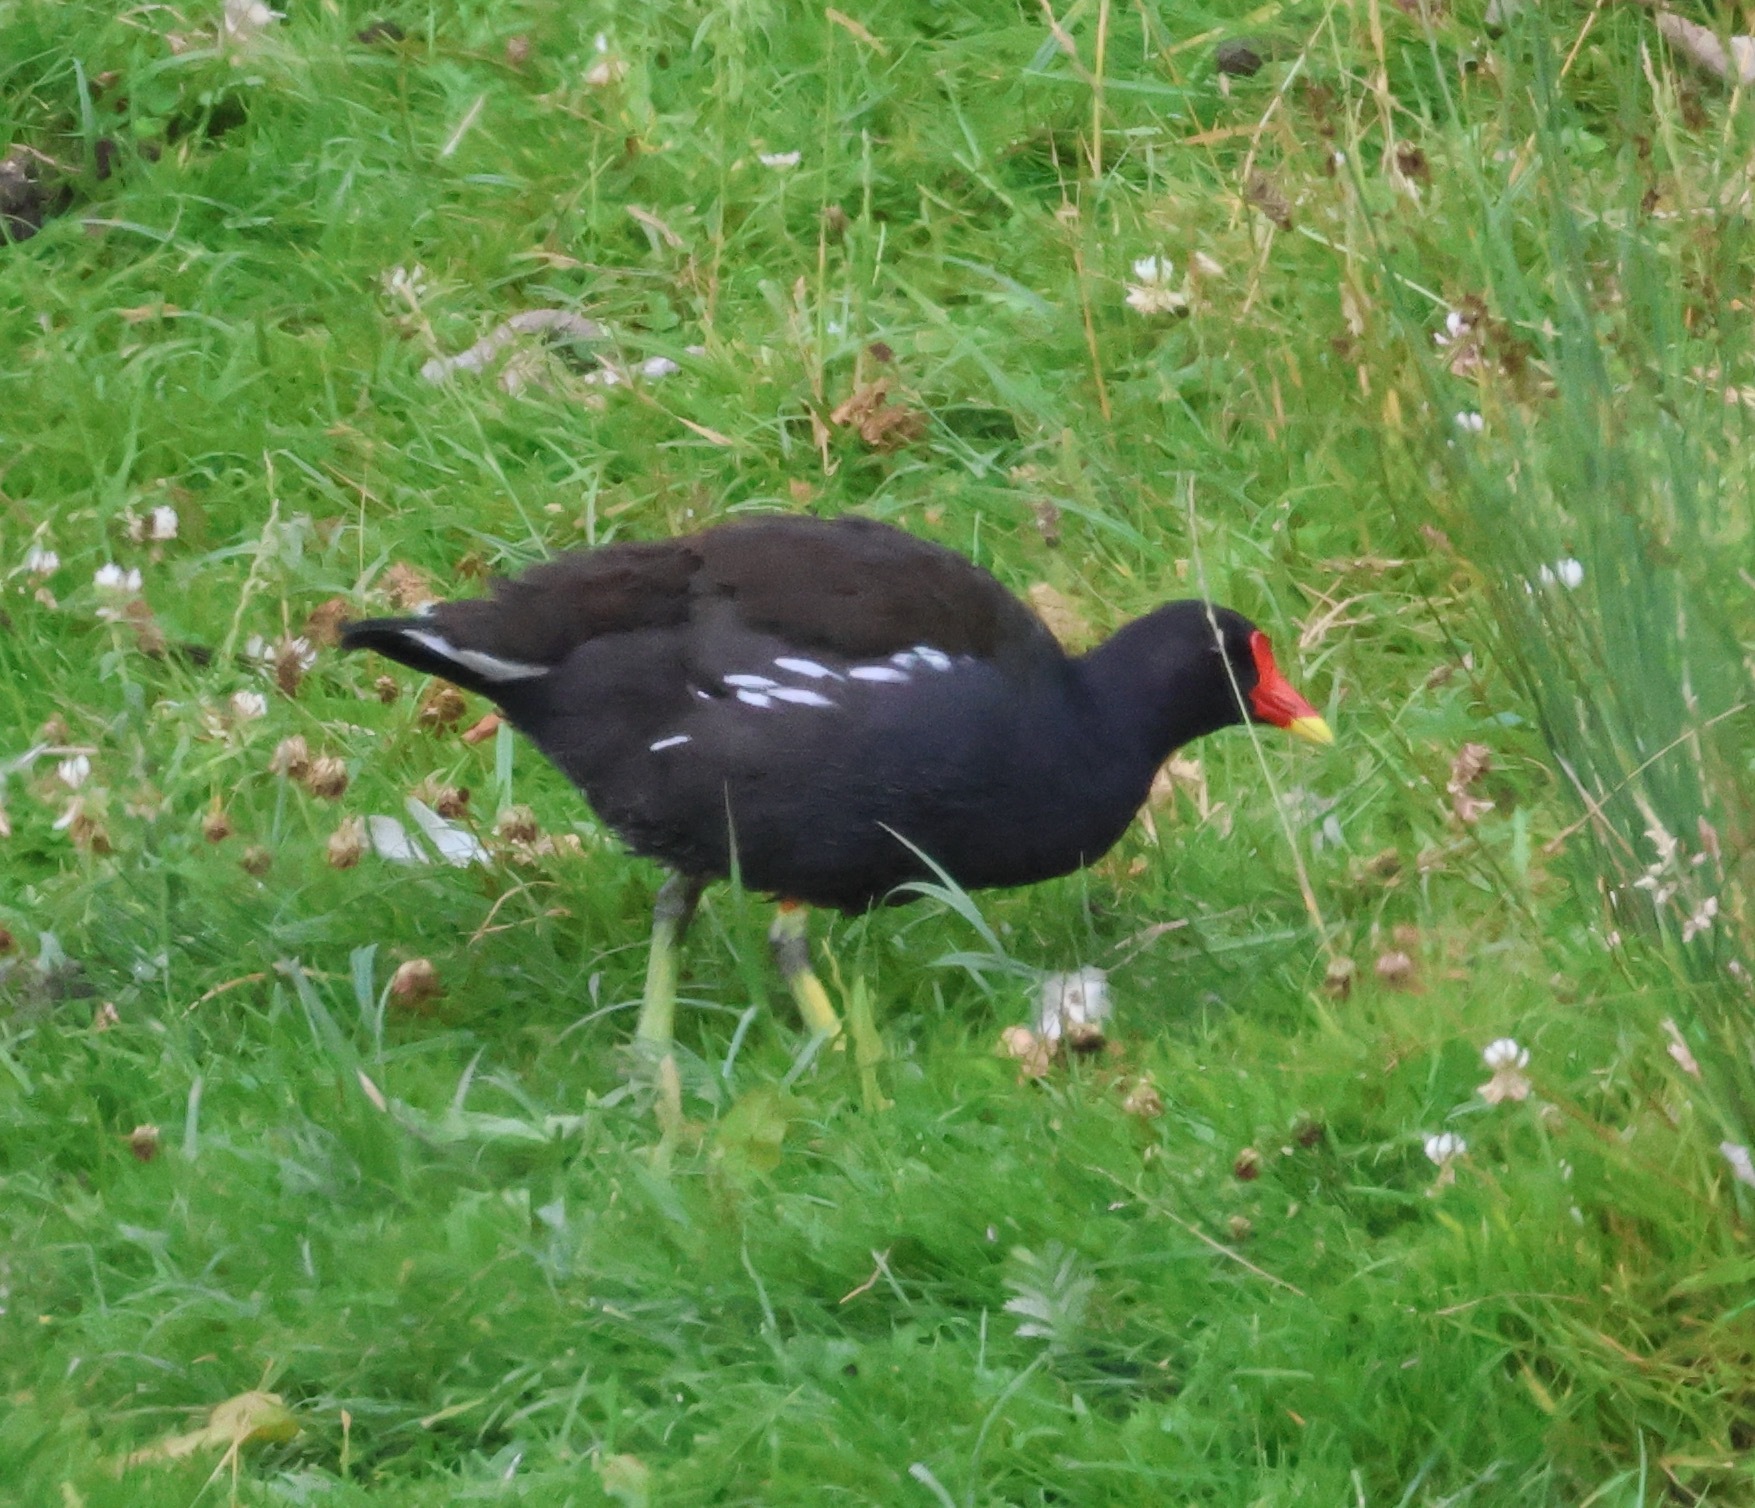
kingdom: Animalia
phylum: Chordata
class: Aves
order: Gruiformes
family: Rallidae
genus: Gallinula
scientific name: Gallinula chloropus
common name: Common moorhen
